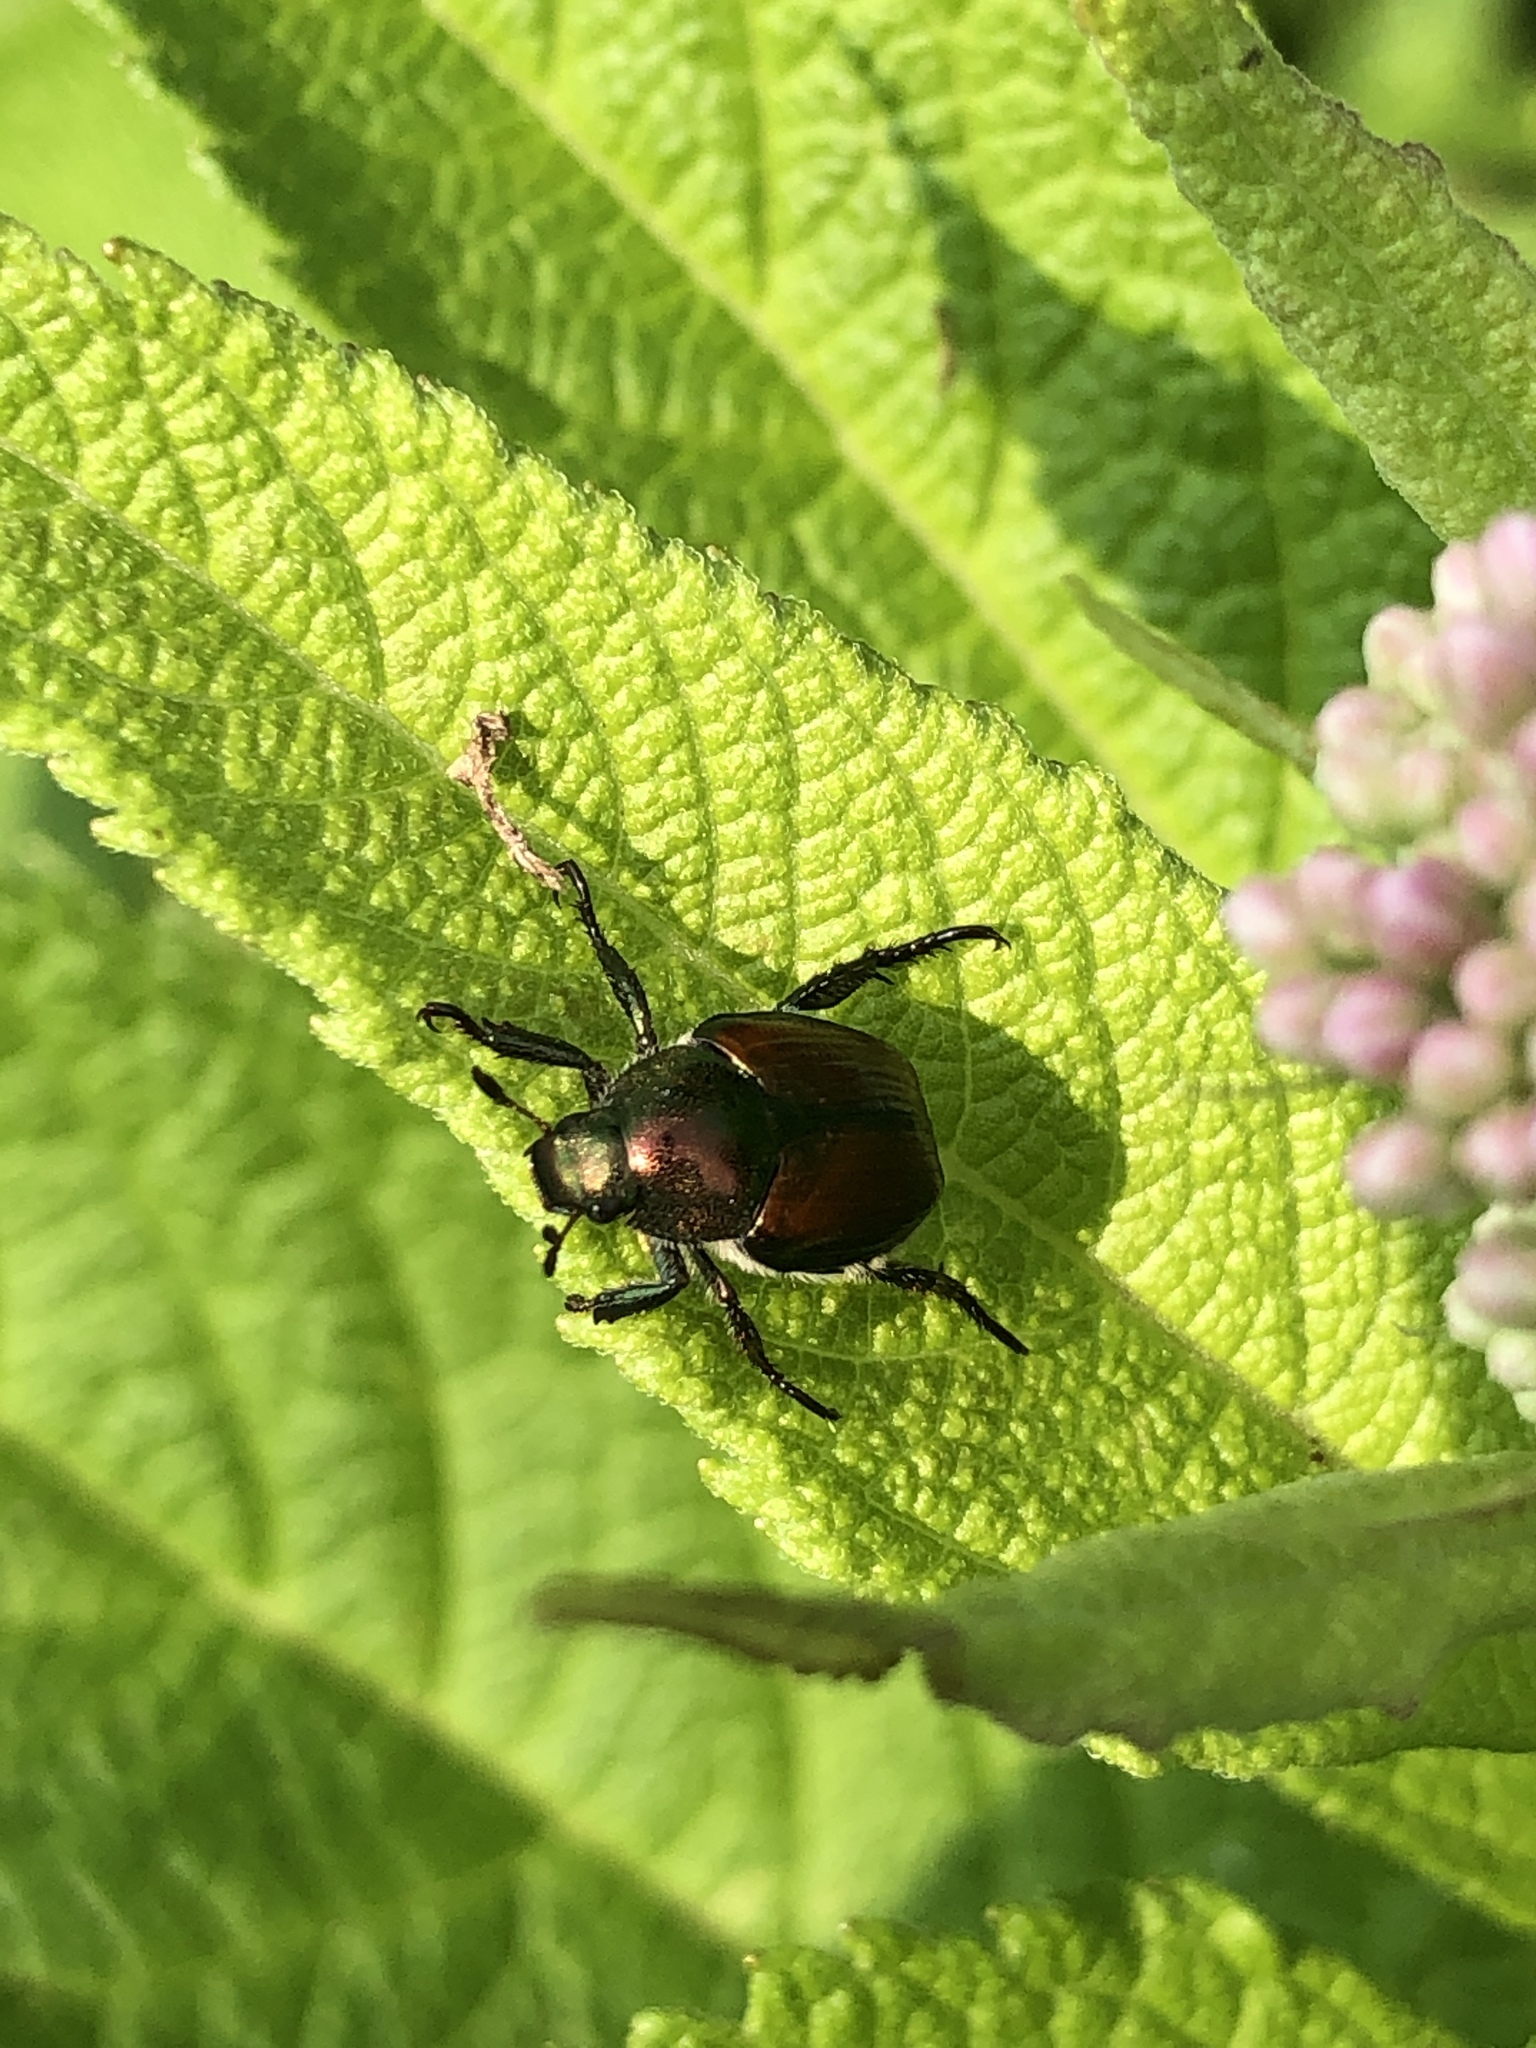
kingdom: Animalia
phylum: Arthropoda
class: Insecta
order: Coleoptera
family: Scarabaeidae
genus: Popillia
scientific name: Popillia japonica
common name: Japanese beetle
